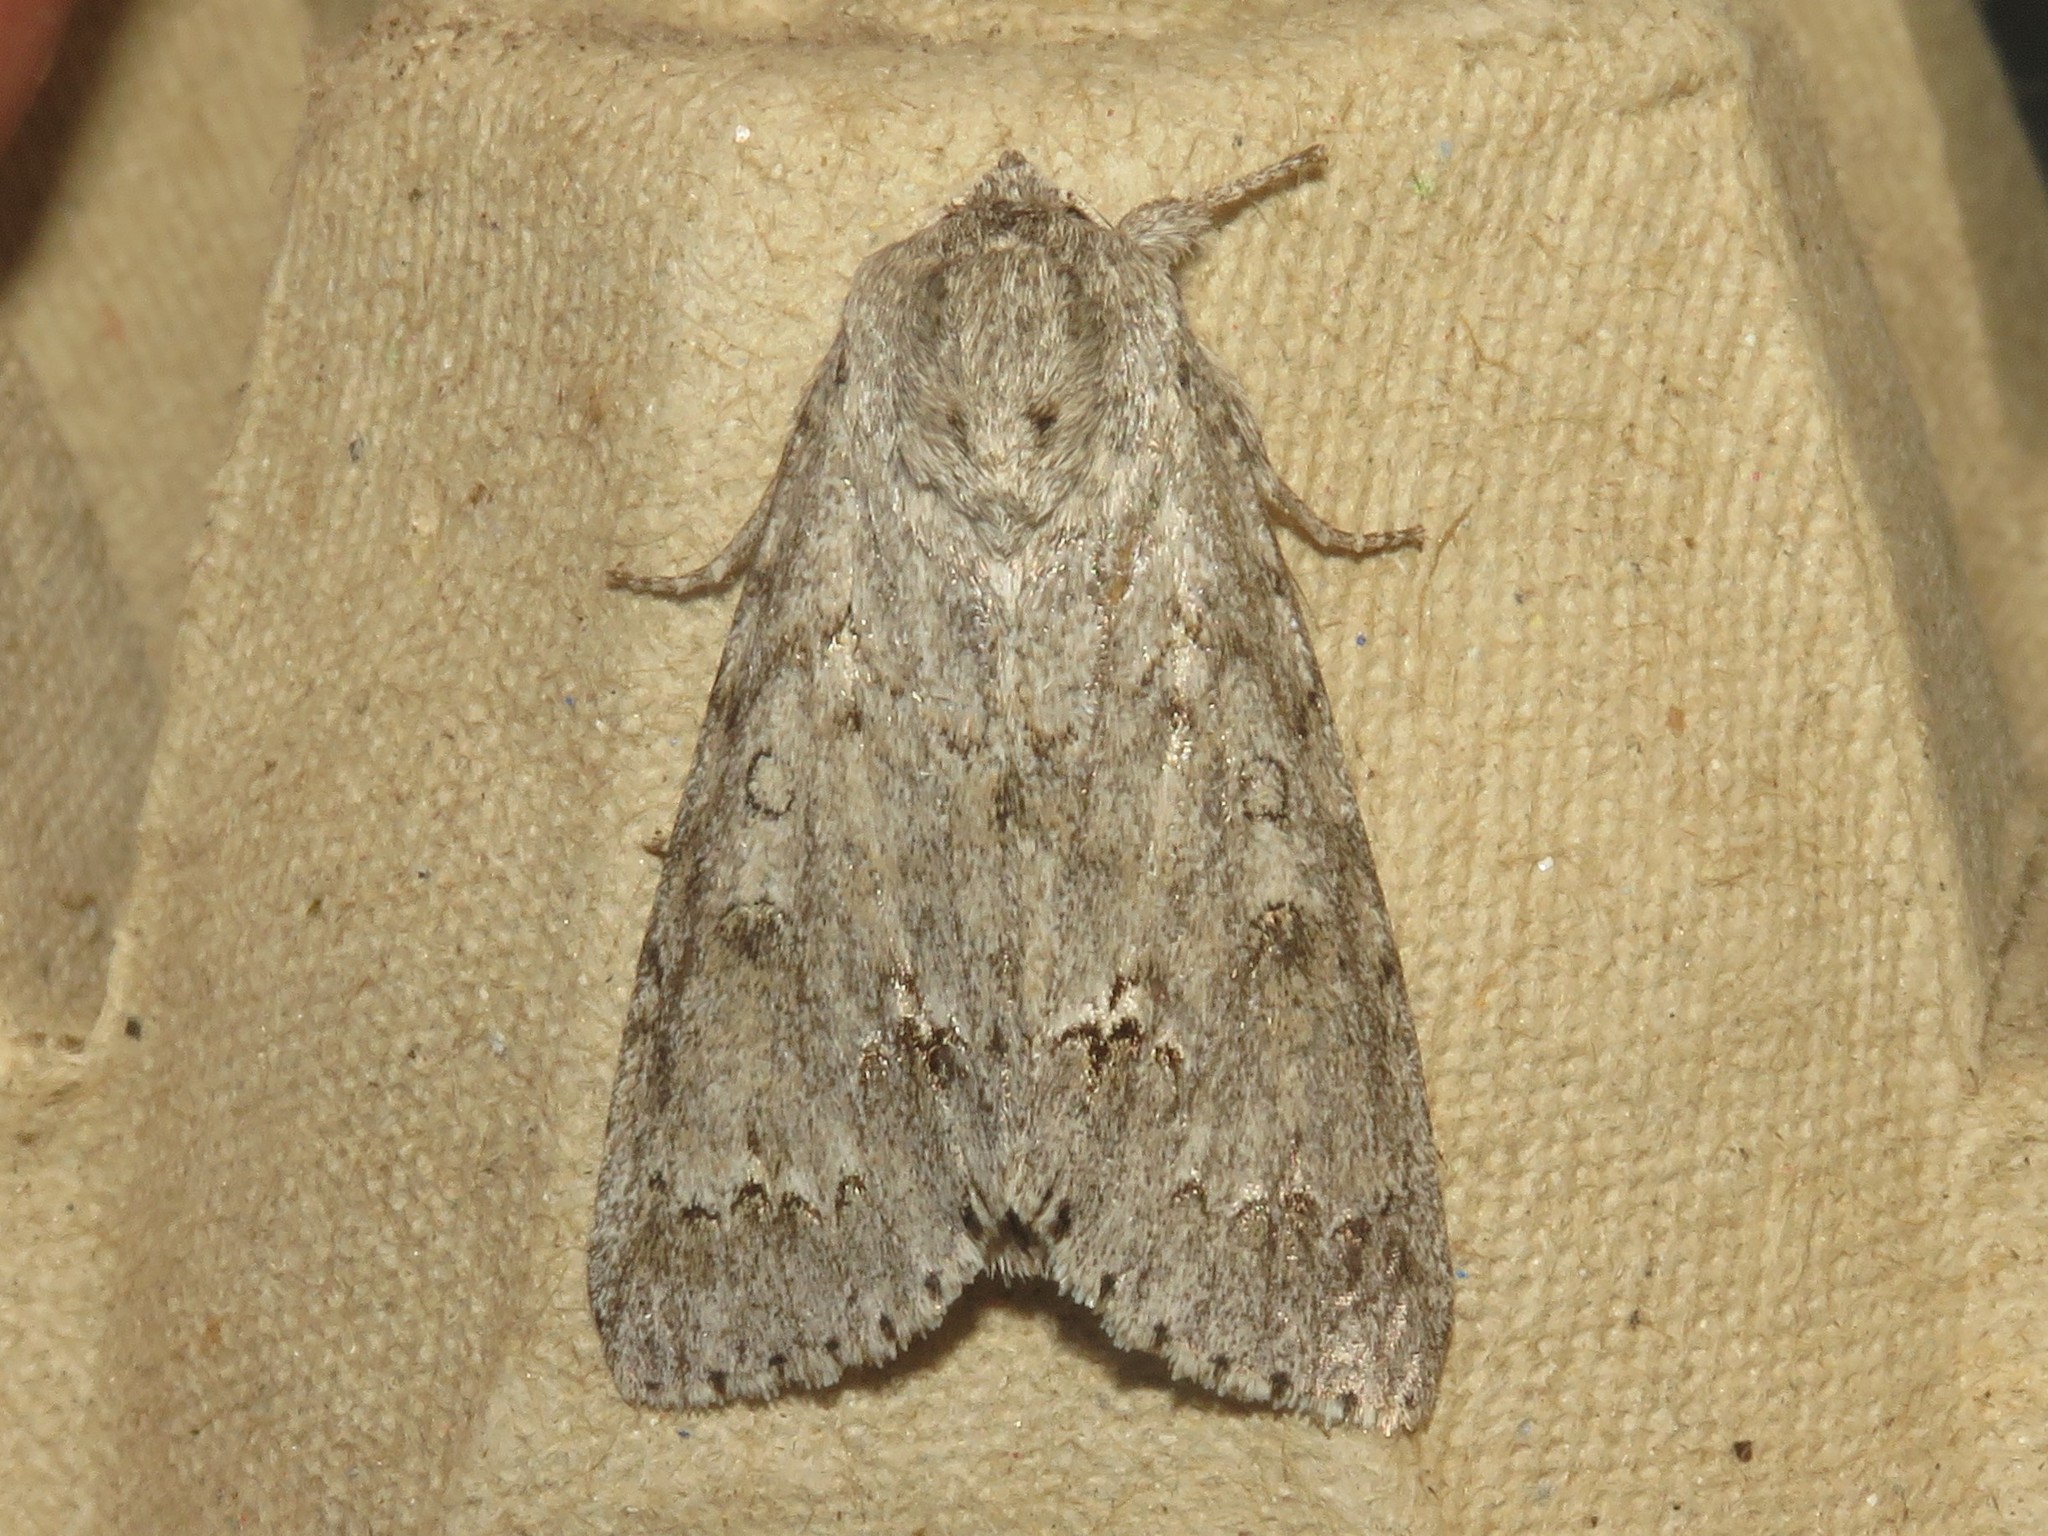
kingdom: Animalia
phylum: Arthropoda
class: Insecta
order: Lepidoptera
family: Noctuidae
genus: Acronicta
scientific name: Acronicta americana
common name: American dagger
